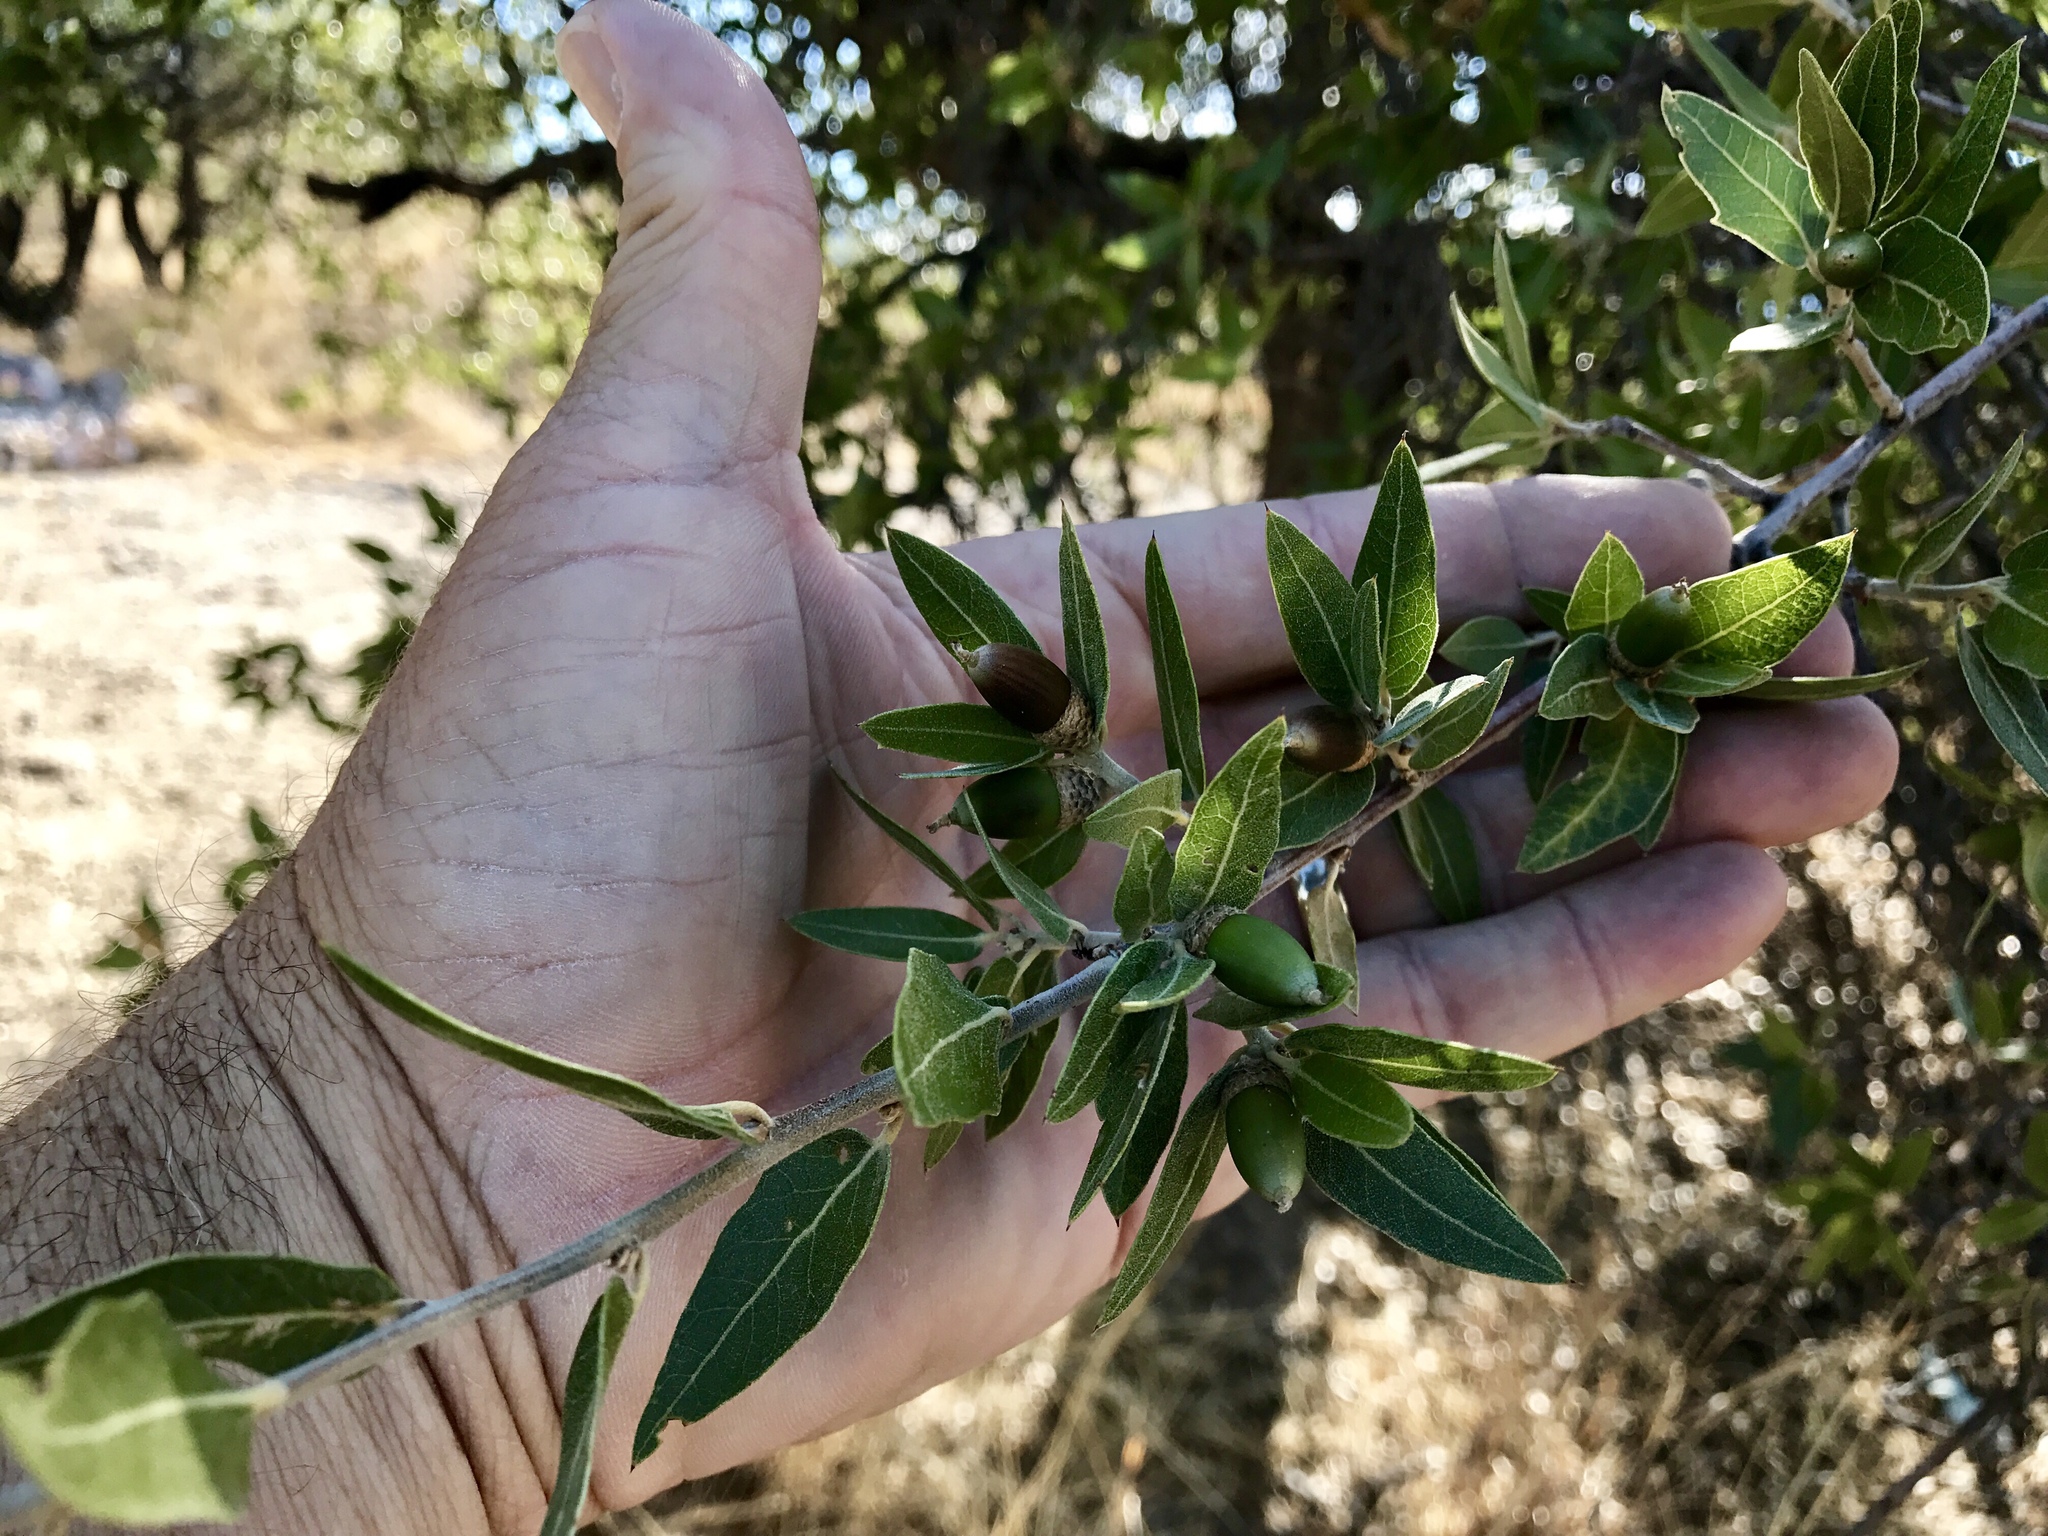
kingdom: Plantae
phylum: Tracheophyta
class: Magnoliopsida
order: Fagales
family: Fagaceae
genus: Quercus
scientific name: Quercus emoryi
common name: Emory oak
